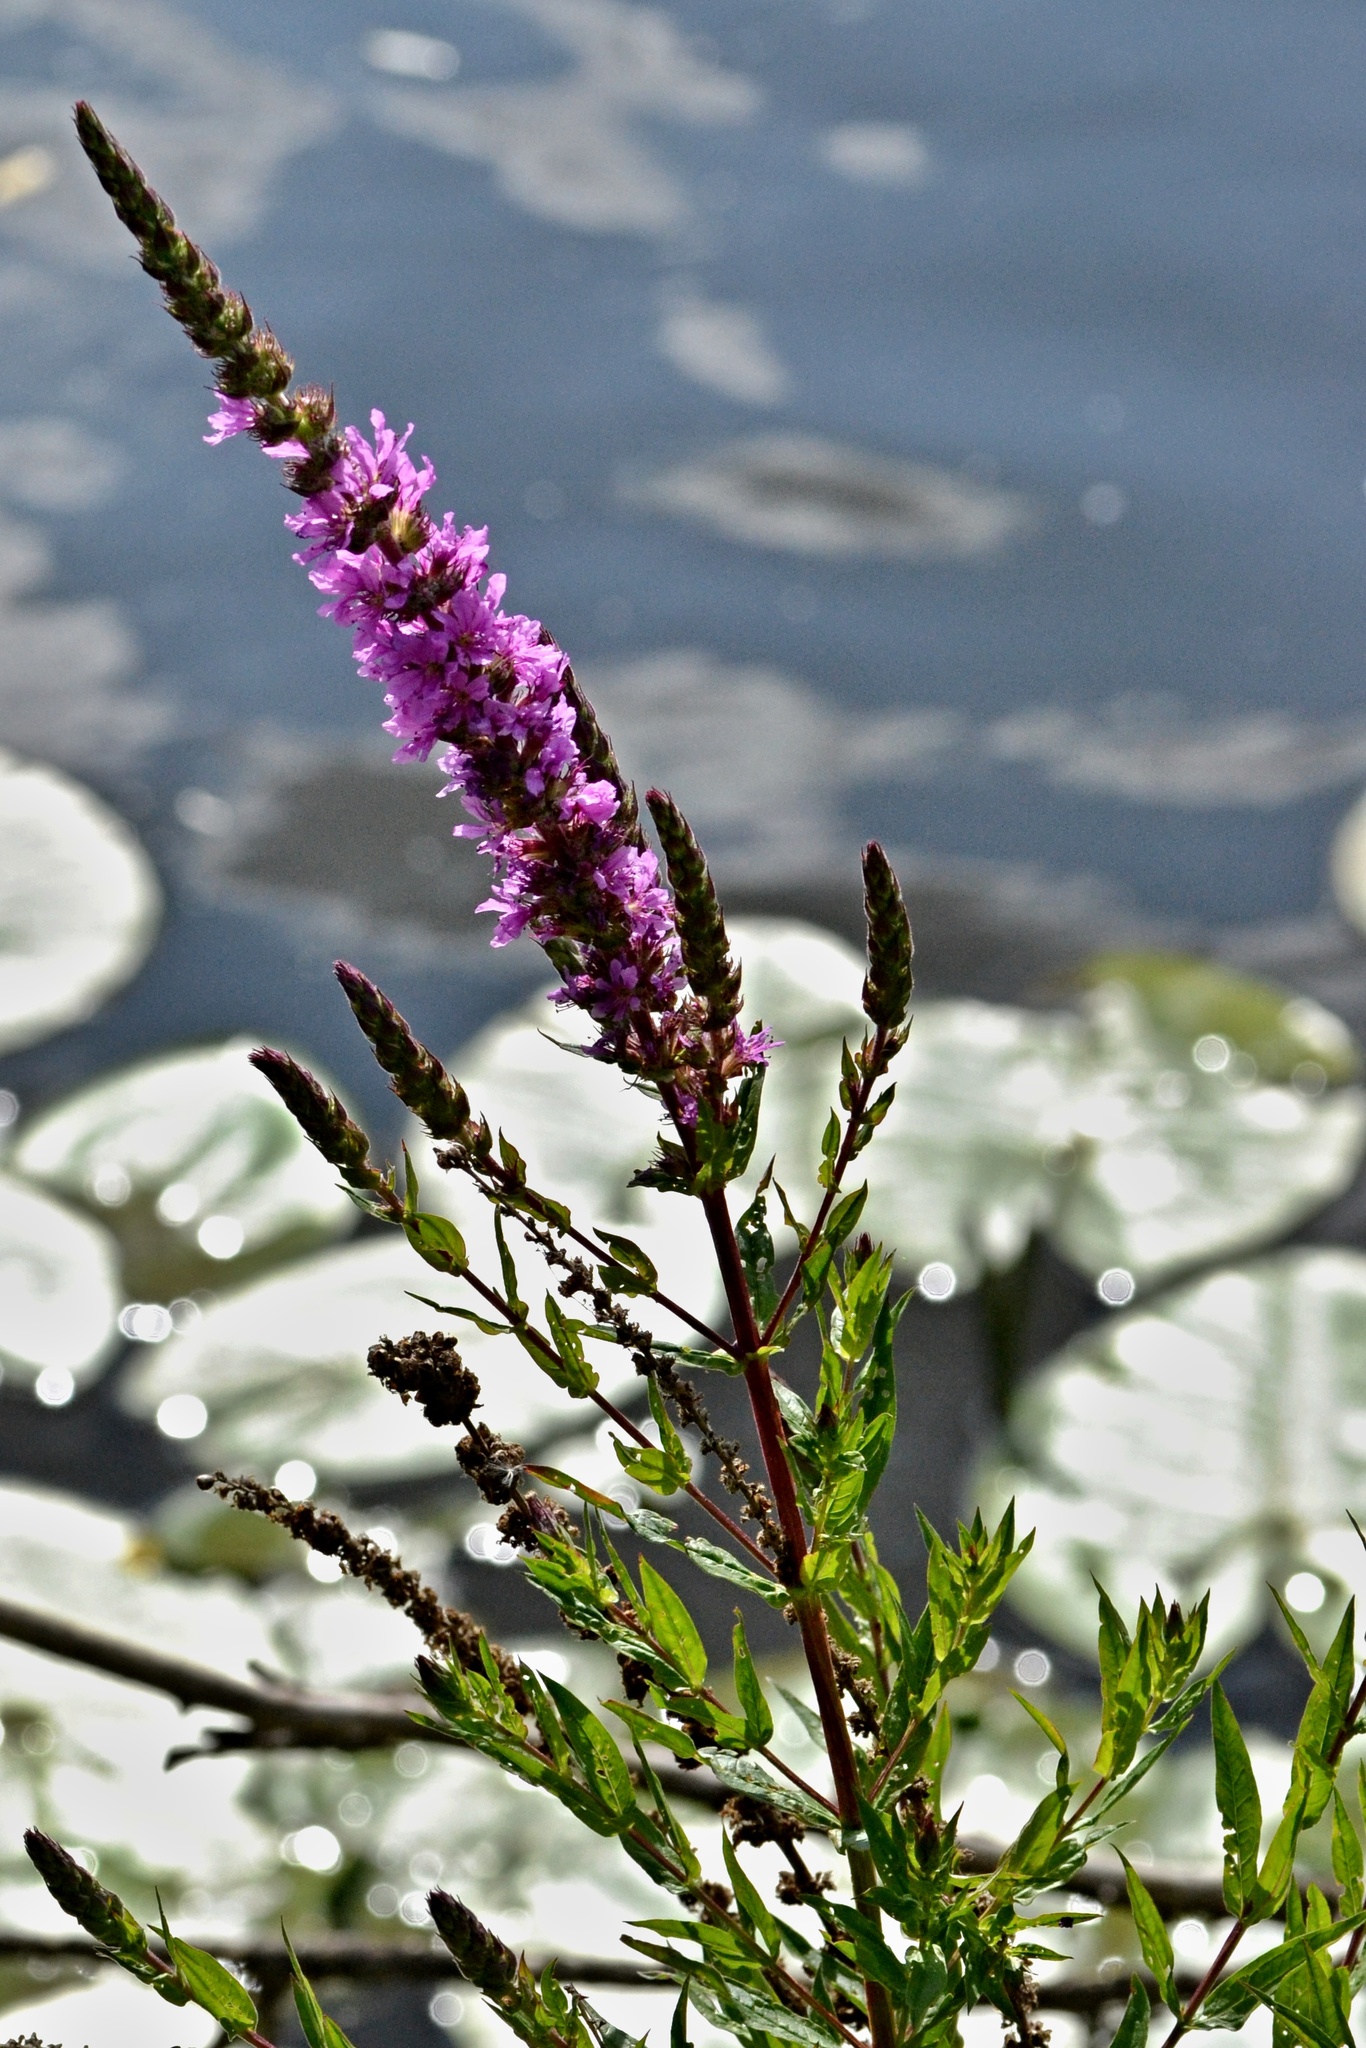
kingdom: Plantae
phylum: Tracheophyta
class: Magnoliopsida
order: Myrtales
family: Lythraceae
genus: Lythrum
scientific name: Lythrum salicaria
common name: Purple loosestrife
